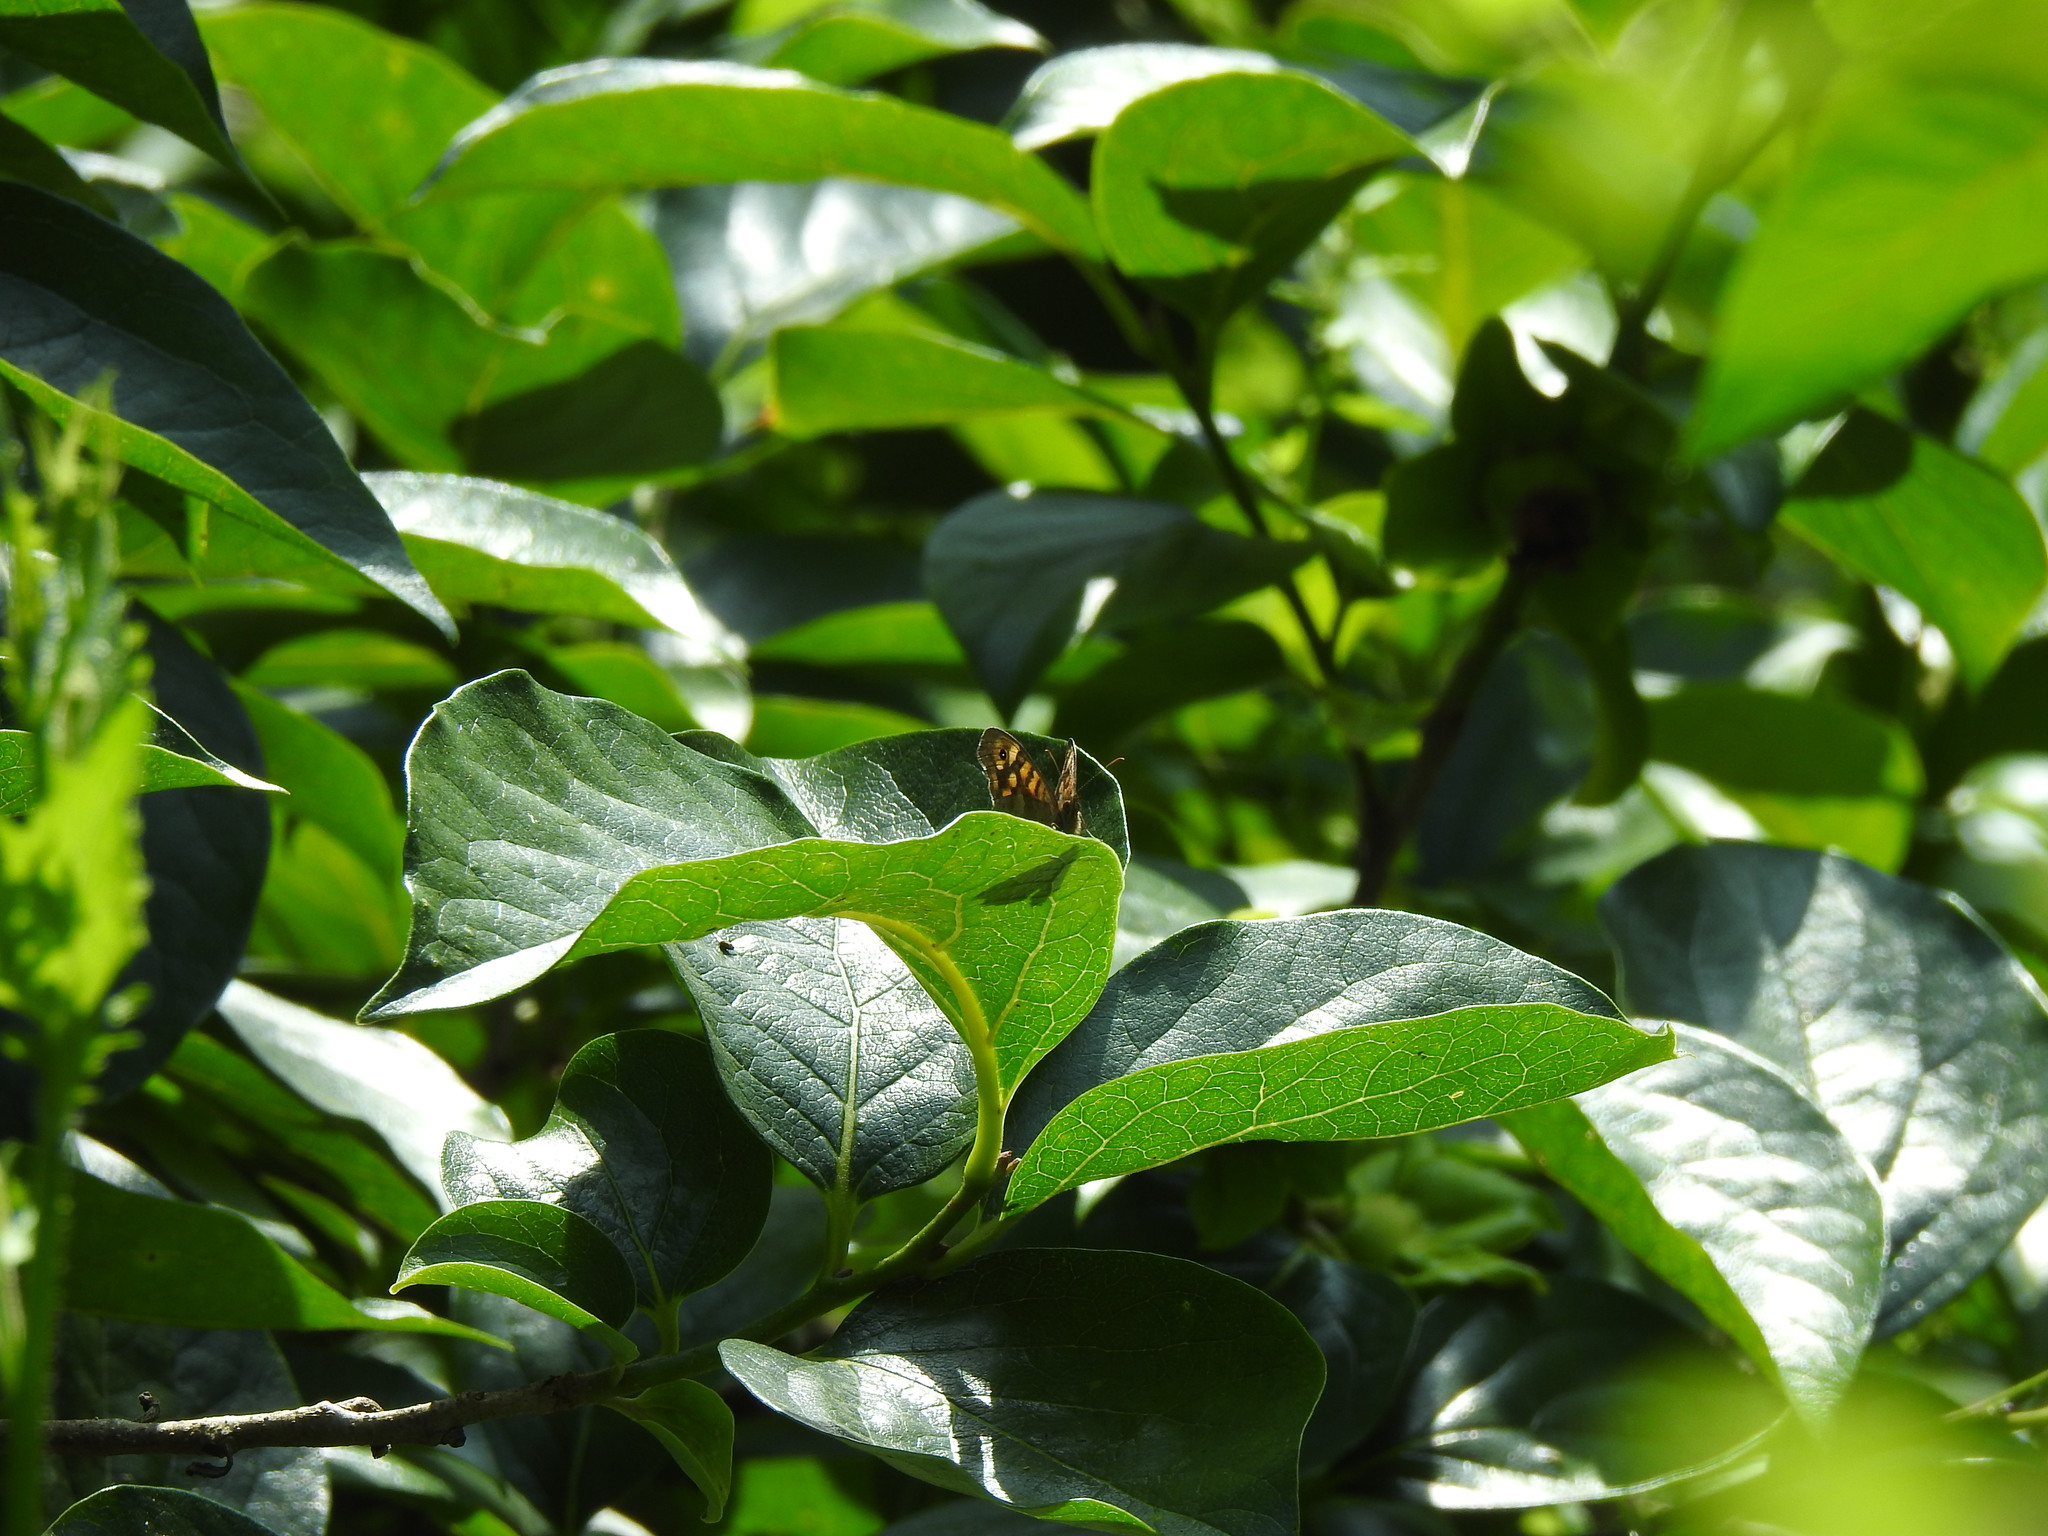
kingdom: Animalia
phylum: Arthropoda
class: Insecta
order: Lepidoptera
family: Nymphalidae
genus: Pararge
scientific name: Pararge aegeria
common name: Speckled wood
